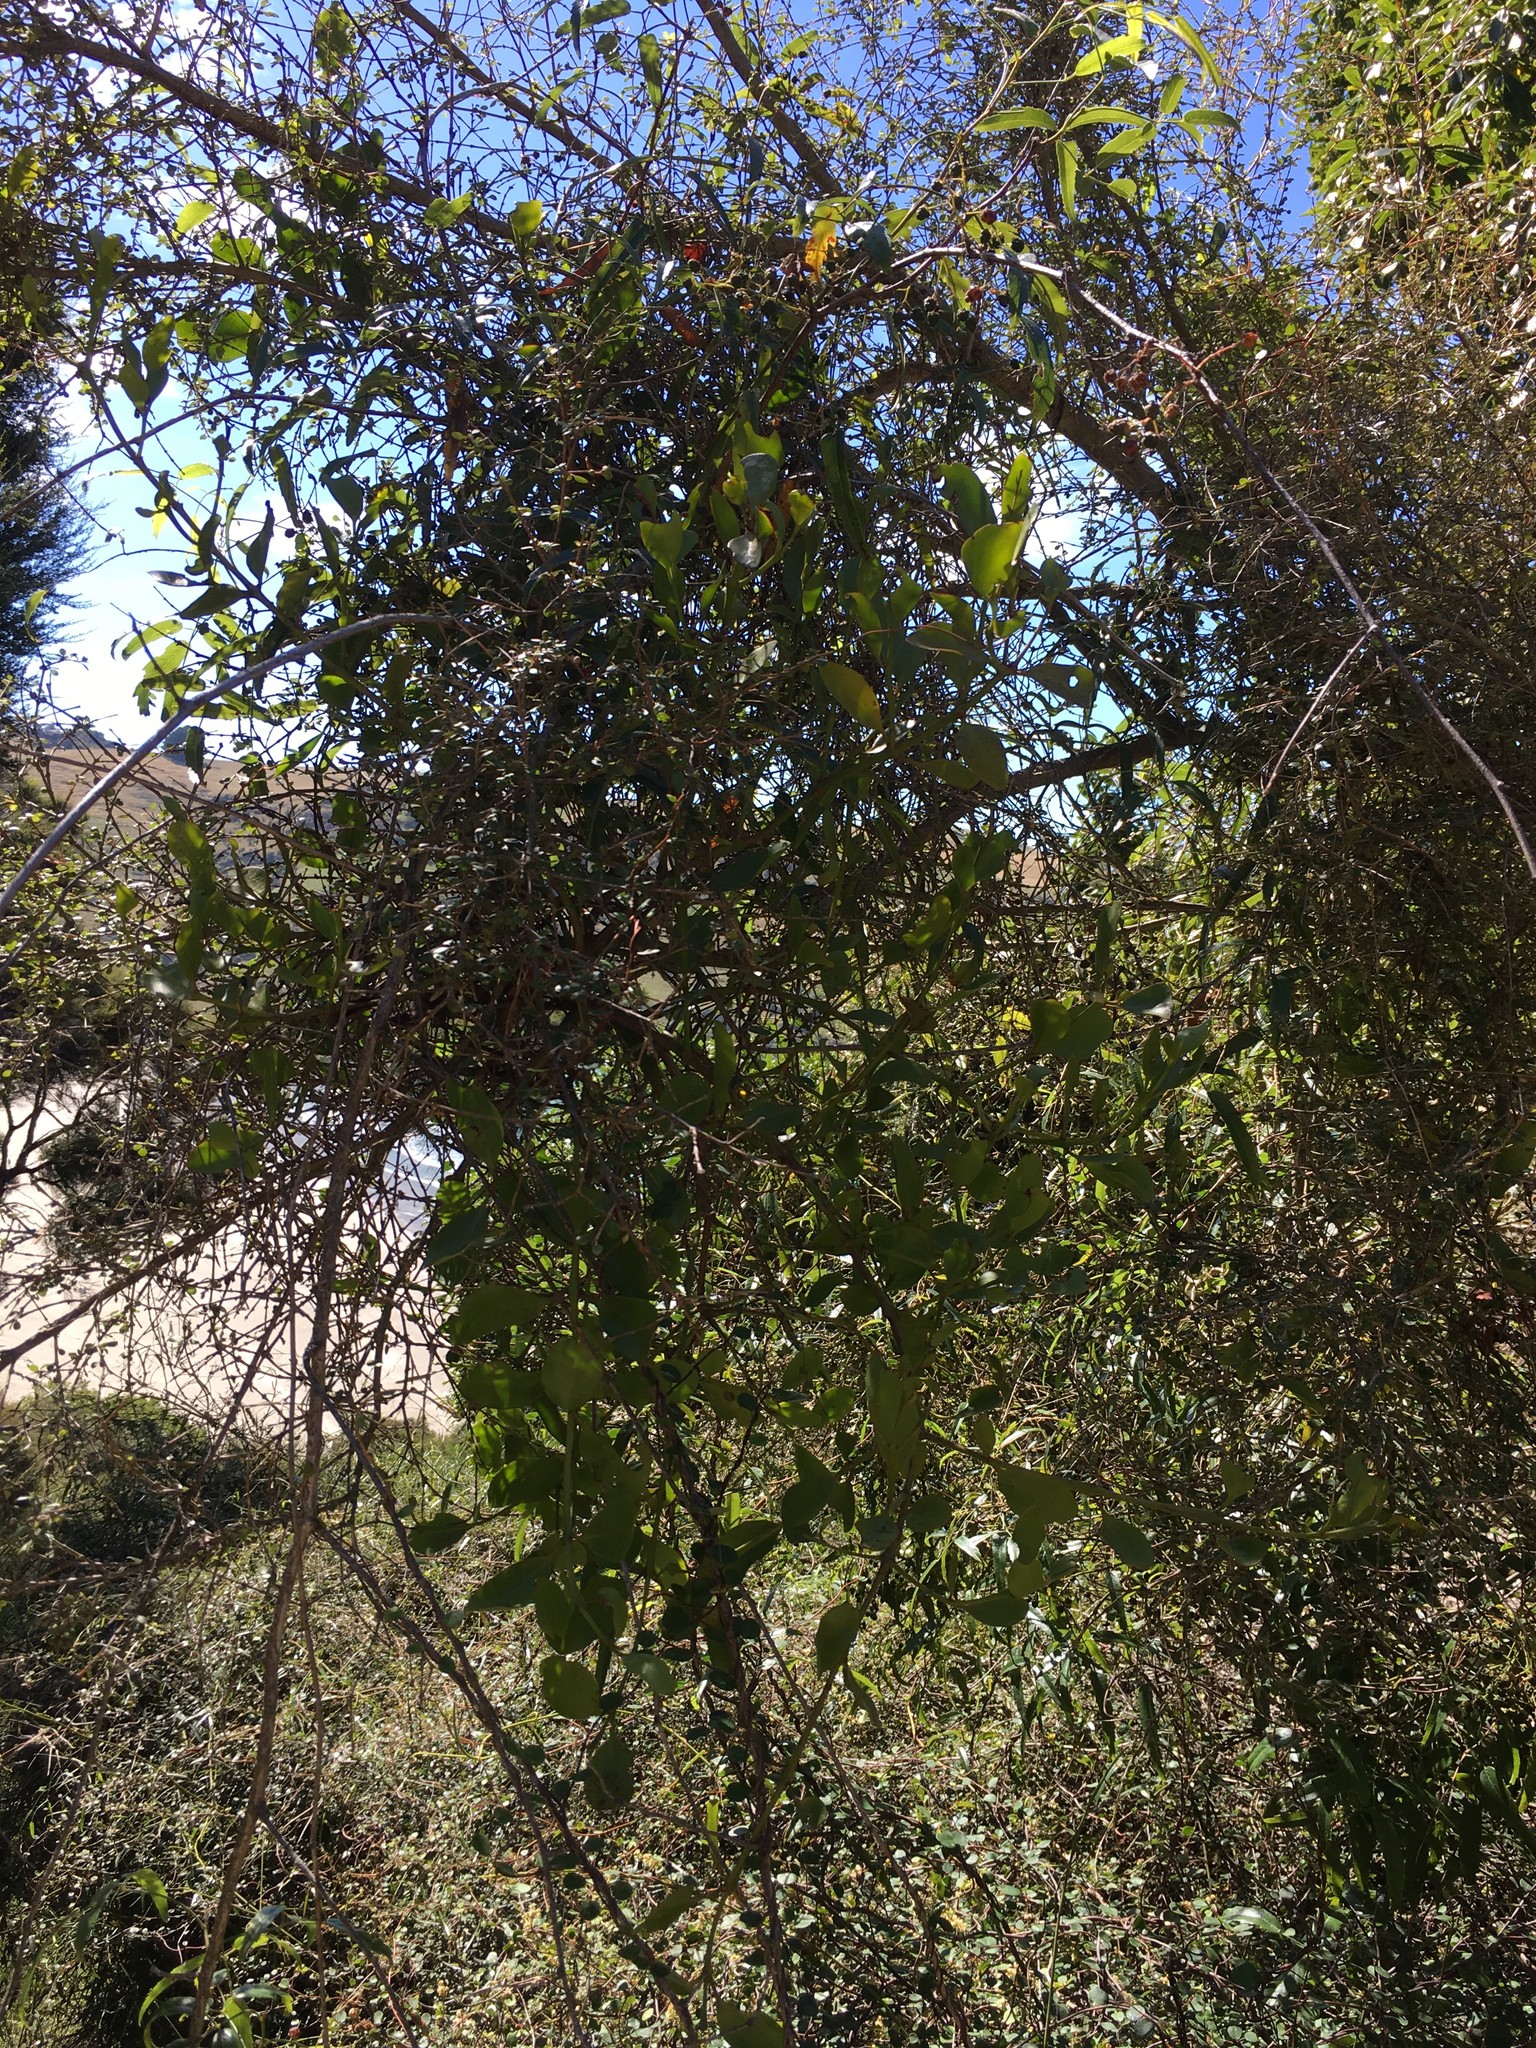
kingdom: Plantae
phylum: Tracheophyta
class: Magnoliopsida
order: Santalales
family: Loranthaceae
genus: Ileostylus
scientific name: Ileostylus micranthus
